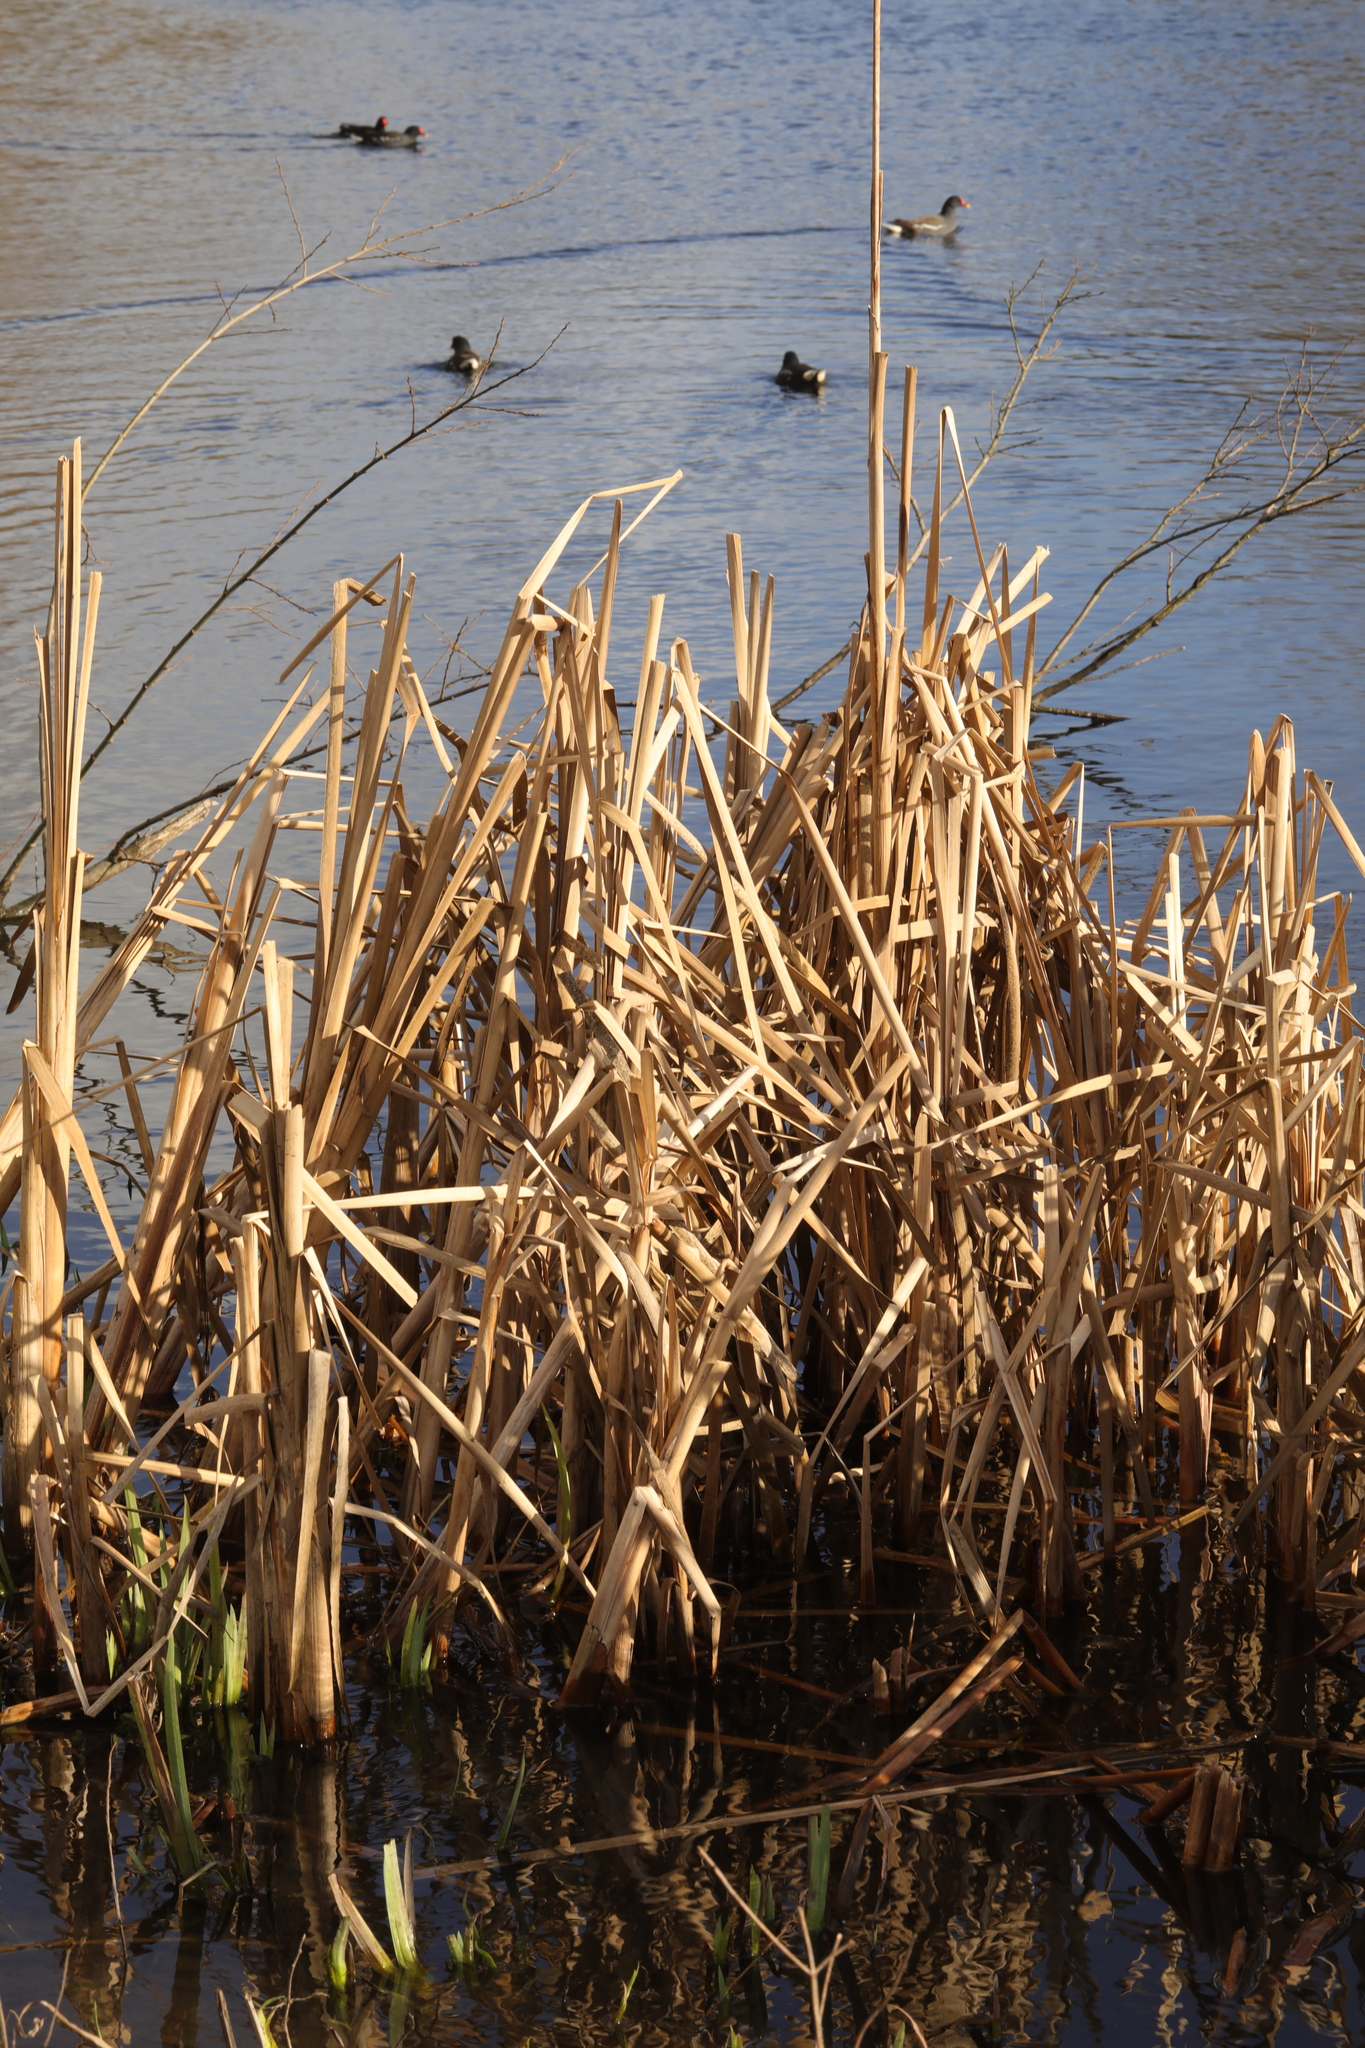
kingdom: Plantae
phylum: Tracheophyta
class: Liliopsida
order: Poales
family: Typhaceae
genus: Typha
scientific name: Typha latifolia
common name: Broadleaf cattail
